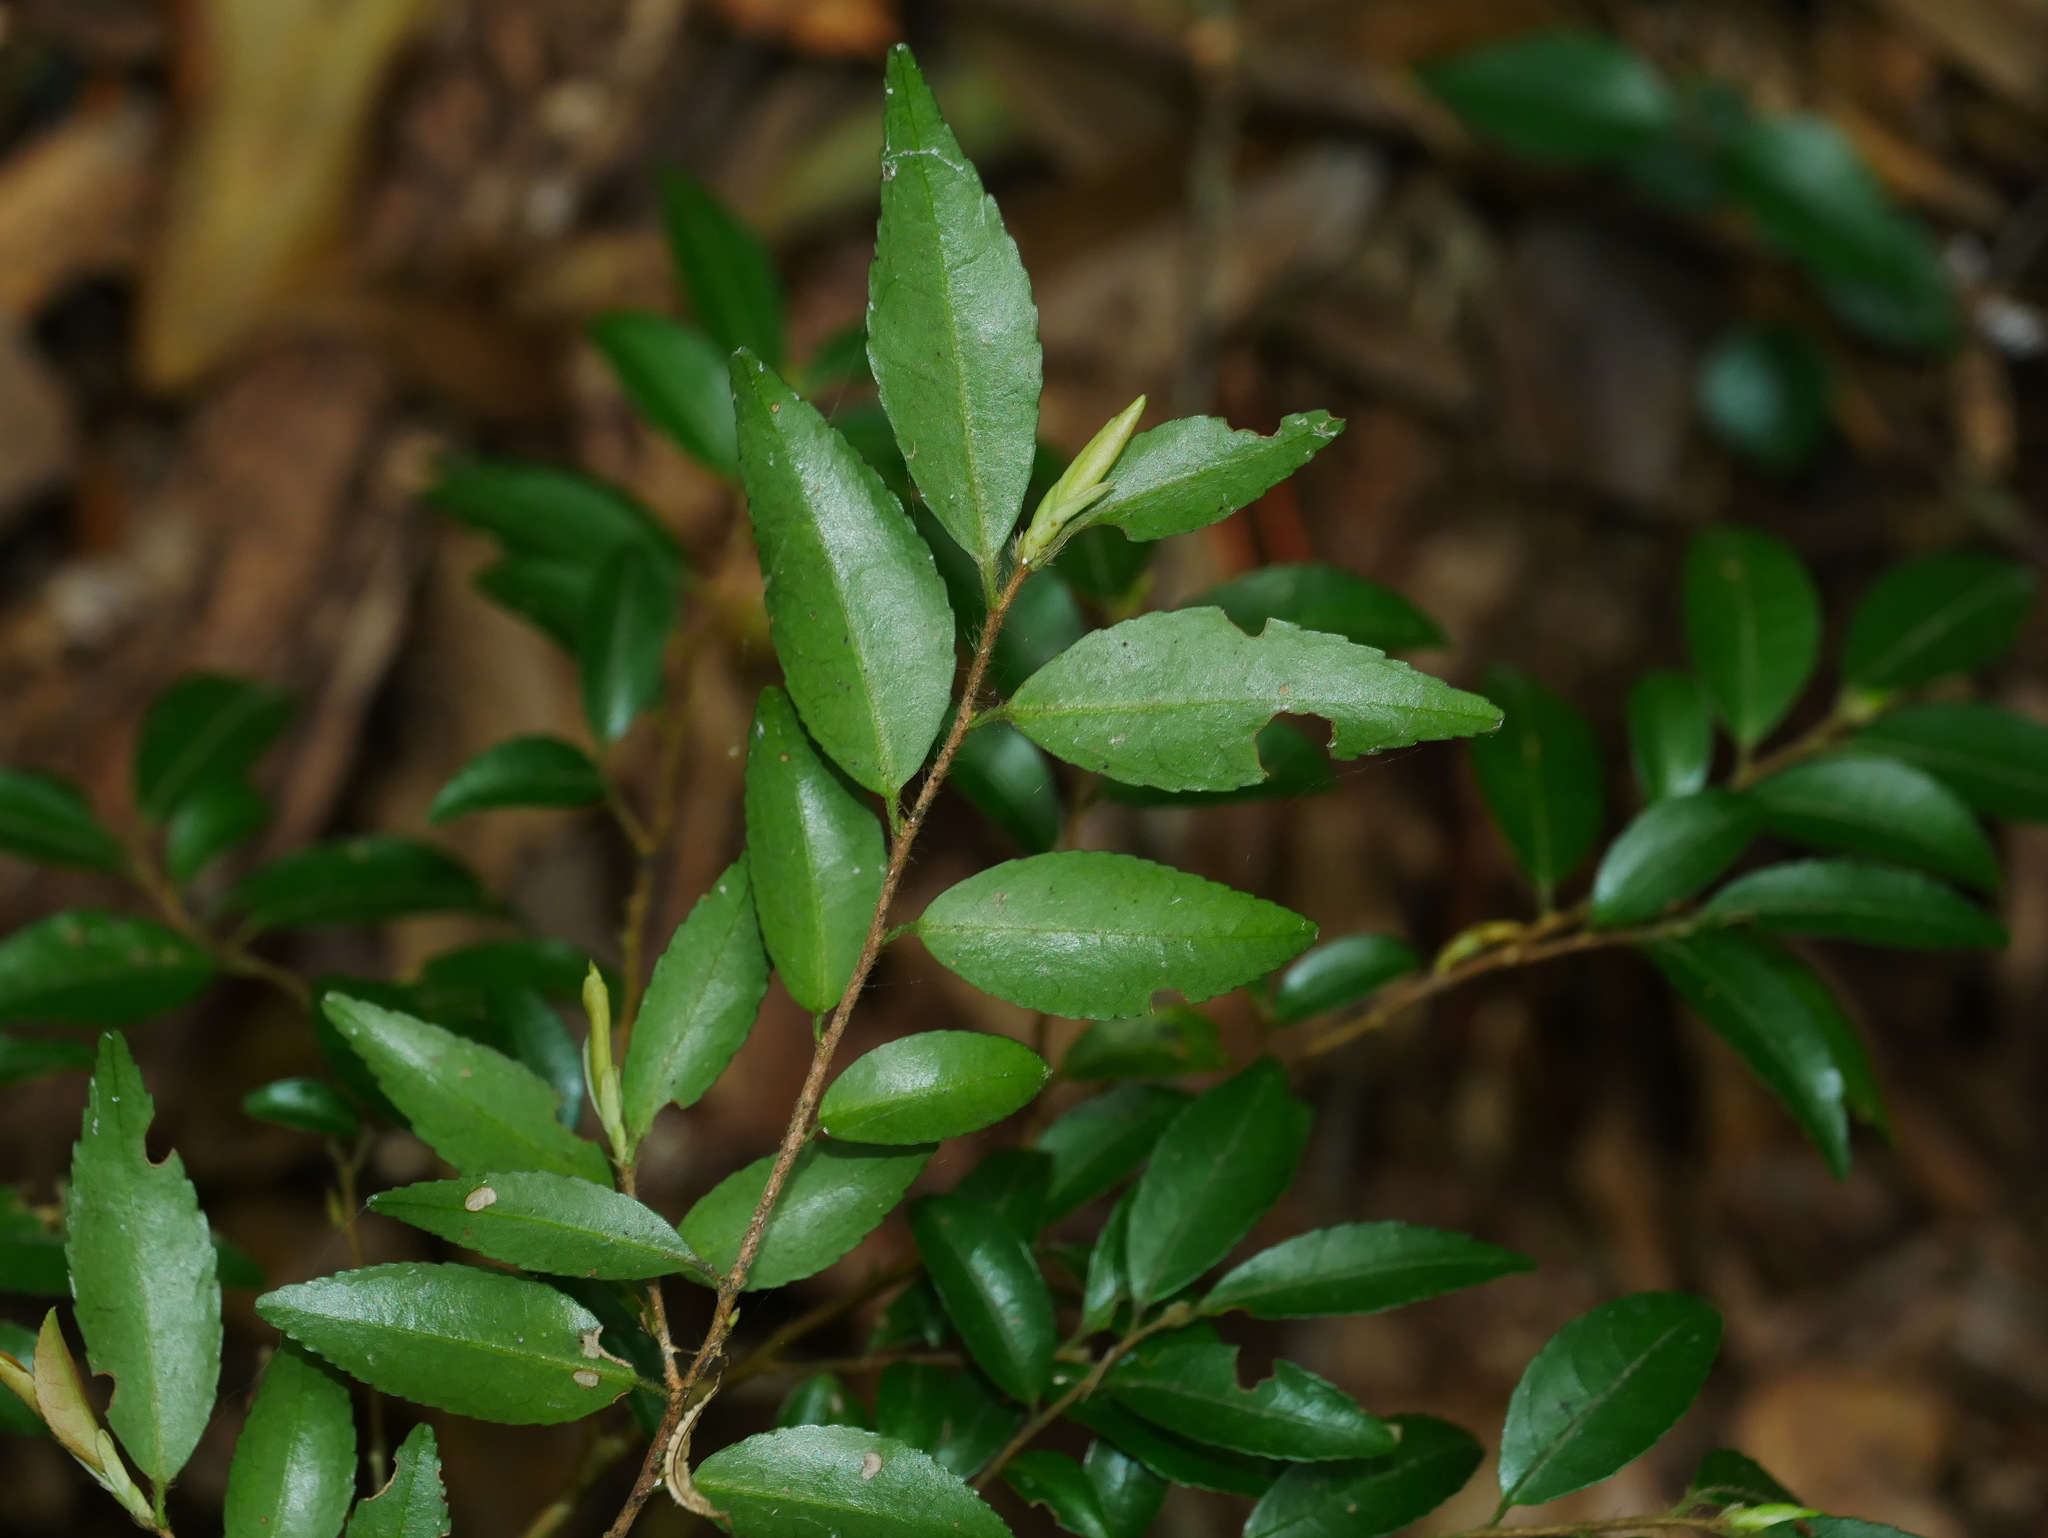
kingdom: Plantae
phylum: Tracheophyta
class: Magnoliopsida
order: Ericales
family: Theaceae
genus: Camellia
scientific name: Camellia lutchuensis
